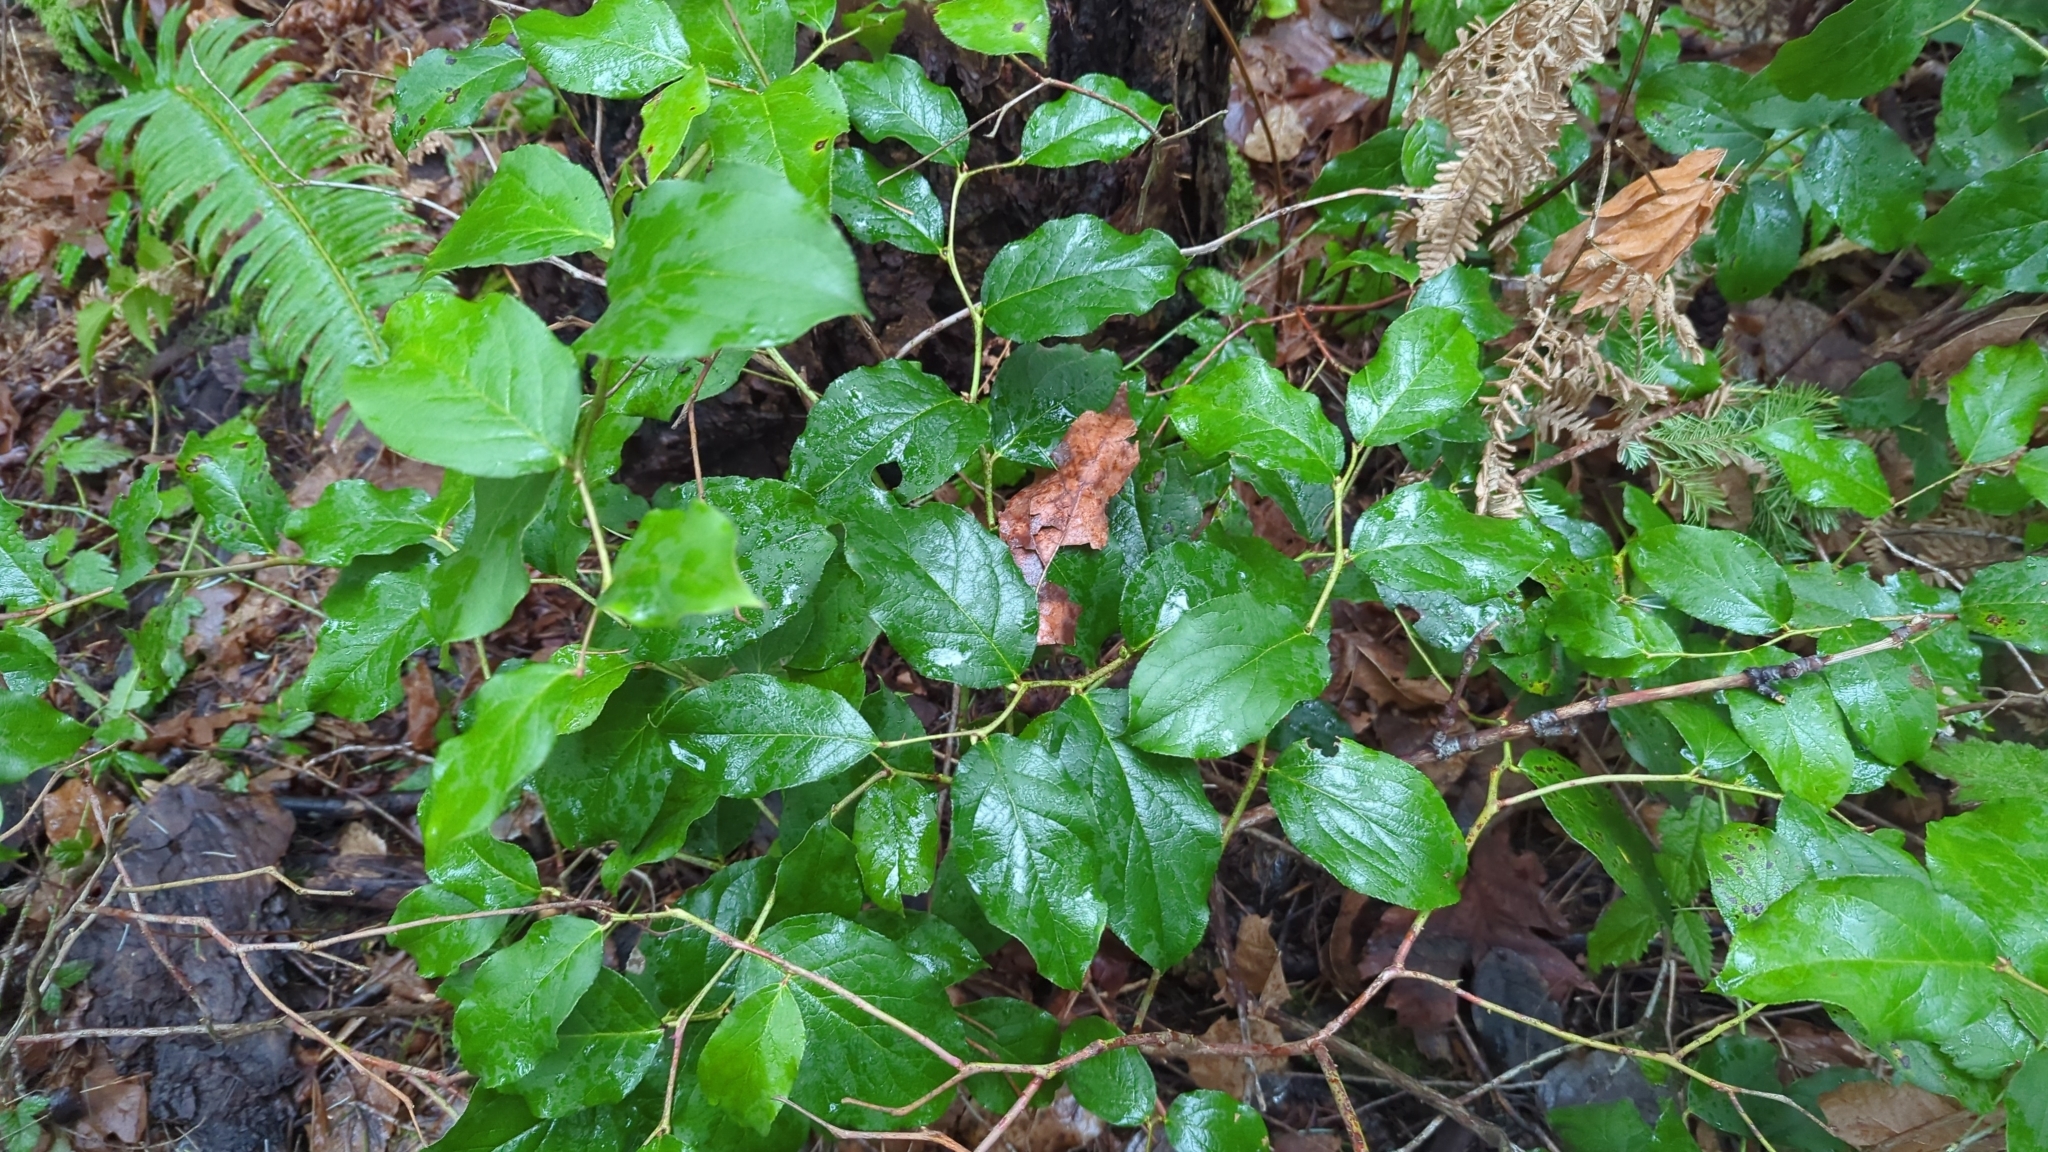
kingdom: Plantae
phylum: Tracheophyta
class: Magnoliopsida
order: Ericales
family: Ericaceae
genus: Gaultheria
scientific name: Gaultheria shallon
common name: Shallon
